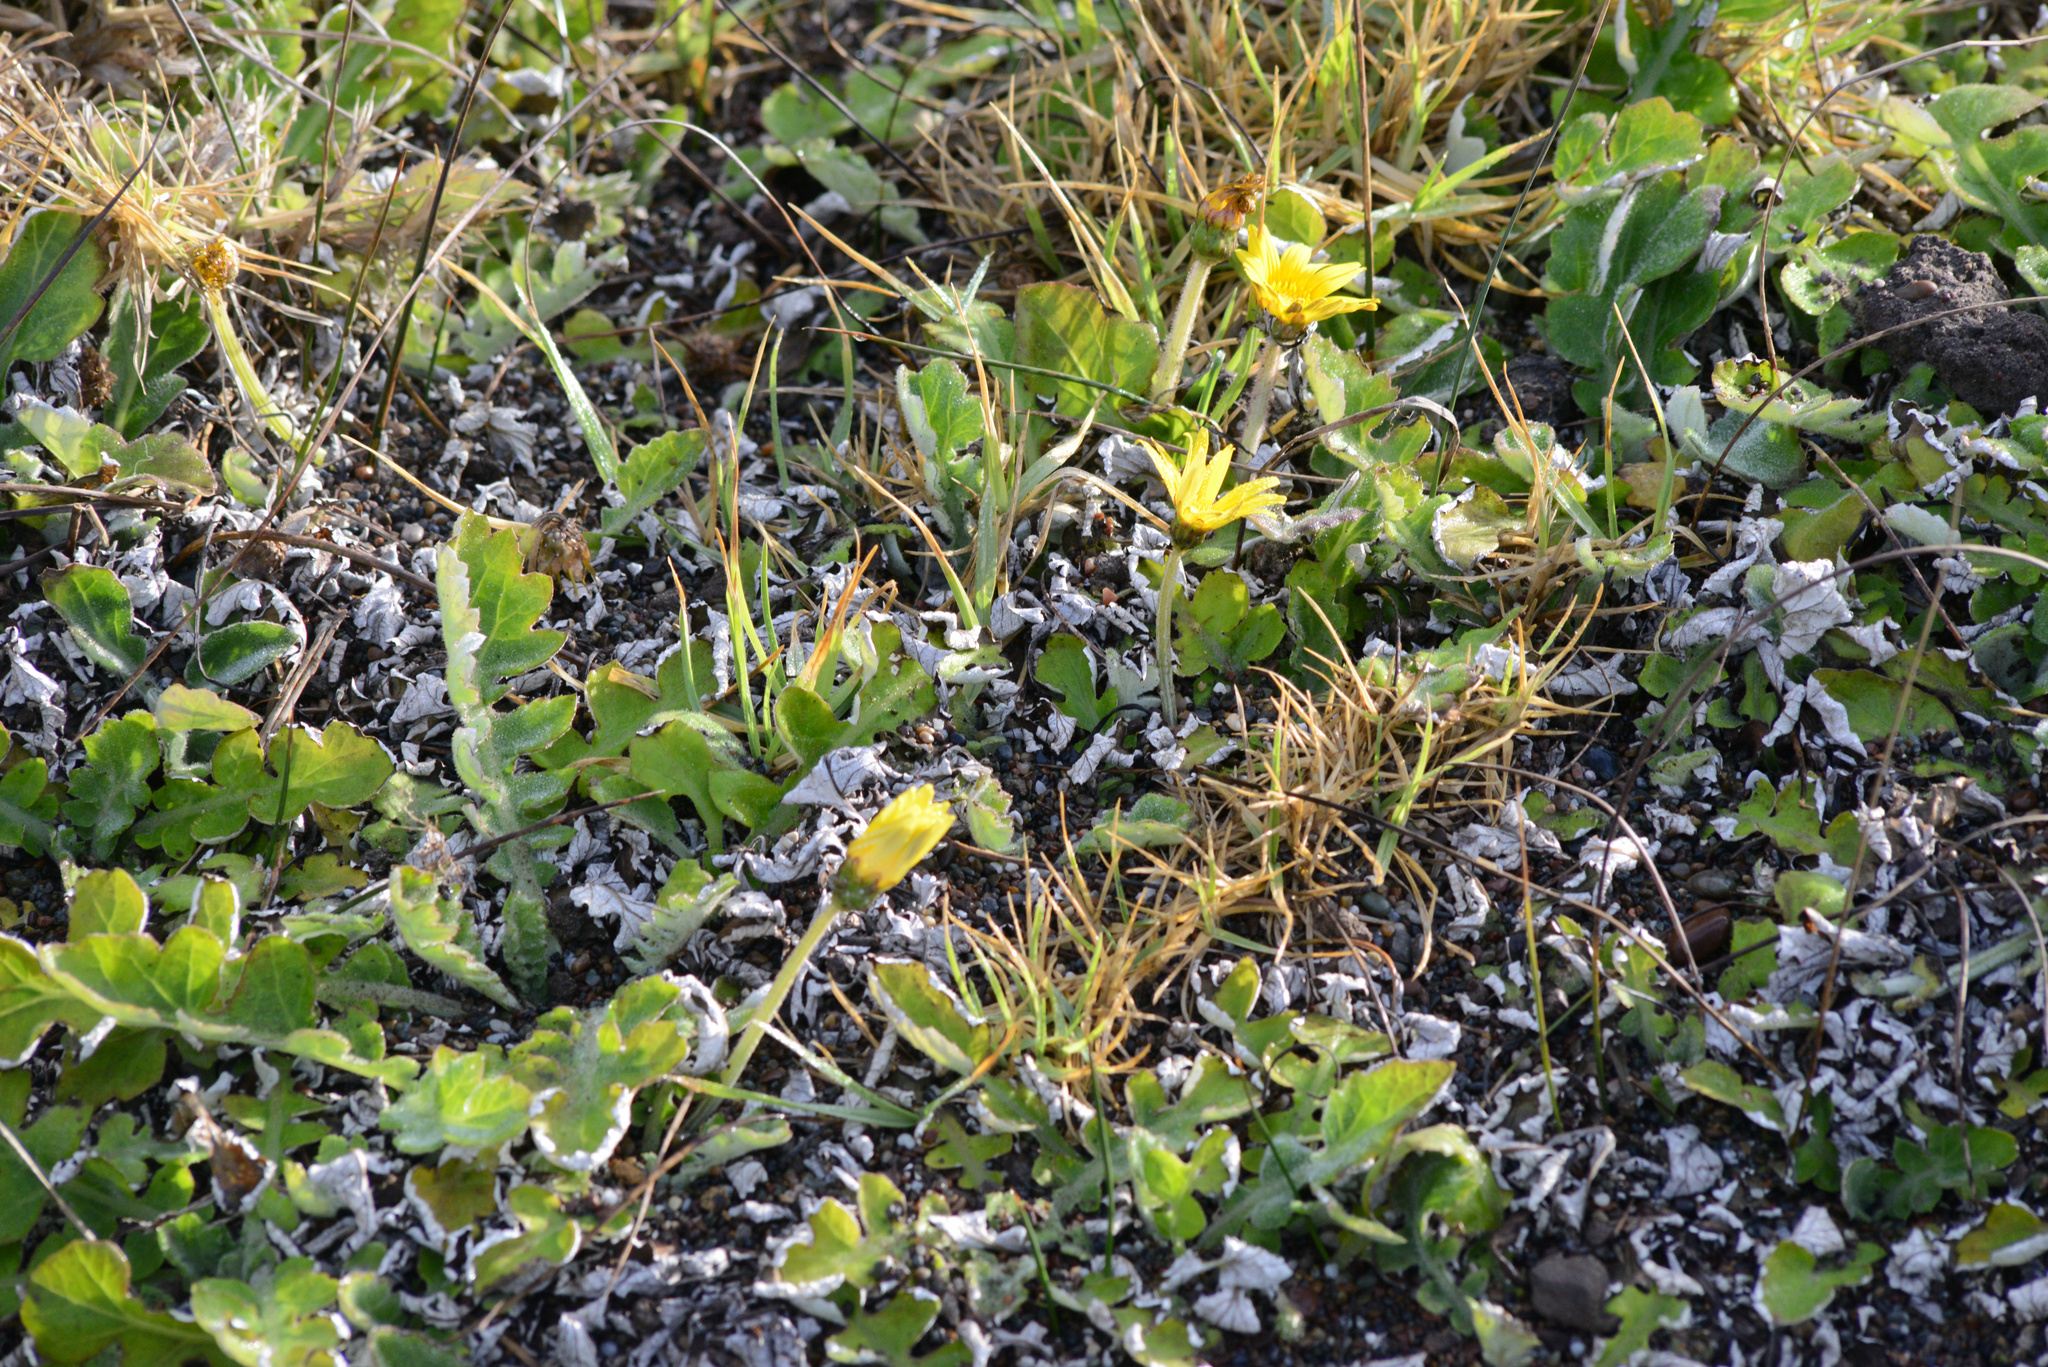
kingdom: Plantae
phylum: Tracheophyta
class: Magnoliopsida
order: Asterales
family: Asteraceae
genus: Arctotheca
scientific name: Arctotheca prostrata
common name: Capeweed
